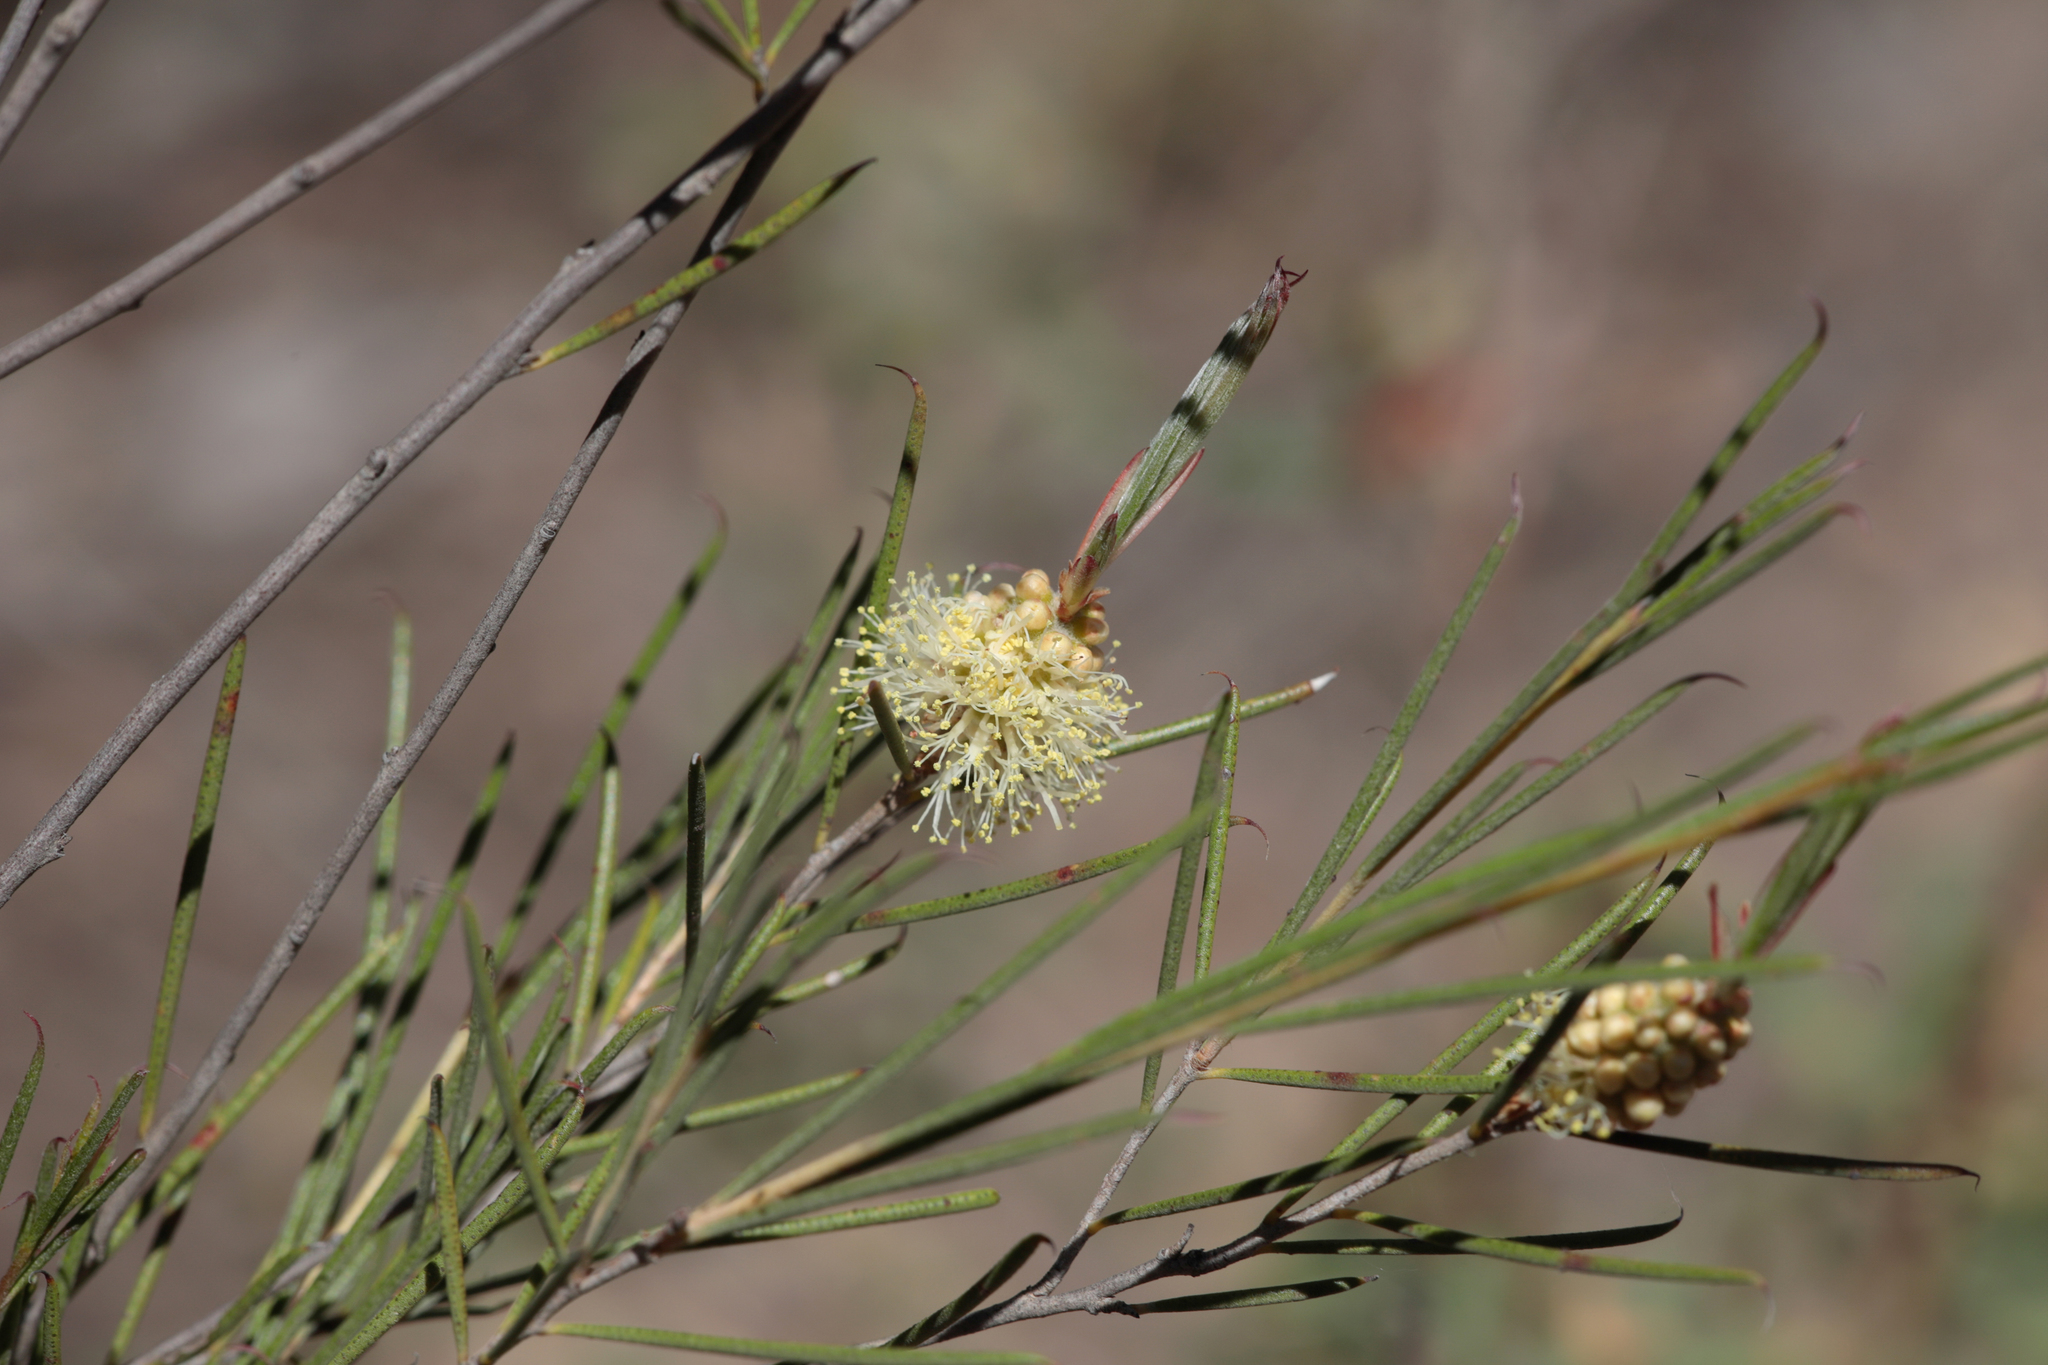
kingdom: Plantae
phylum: Tracheophyta
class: Magnoliopsida
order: Myrtales
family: Myrtaceae
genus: Melaleuca
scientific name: Melaleuca uncinata
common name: Broom honey myrtle
